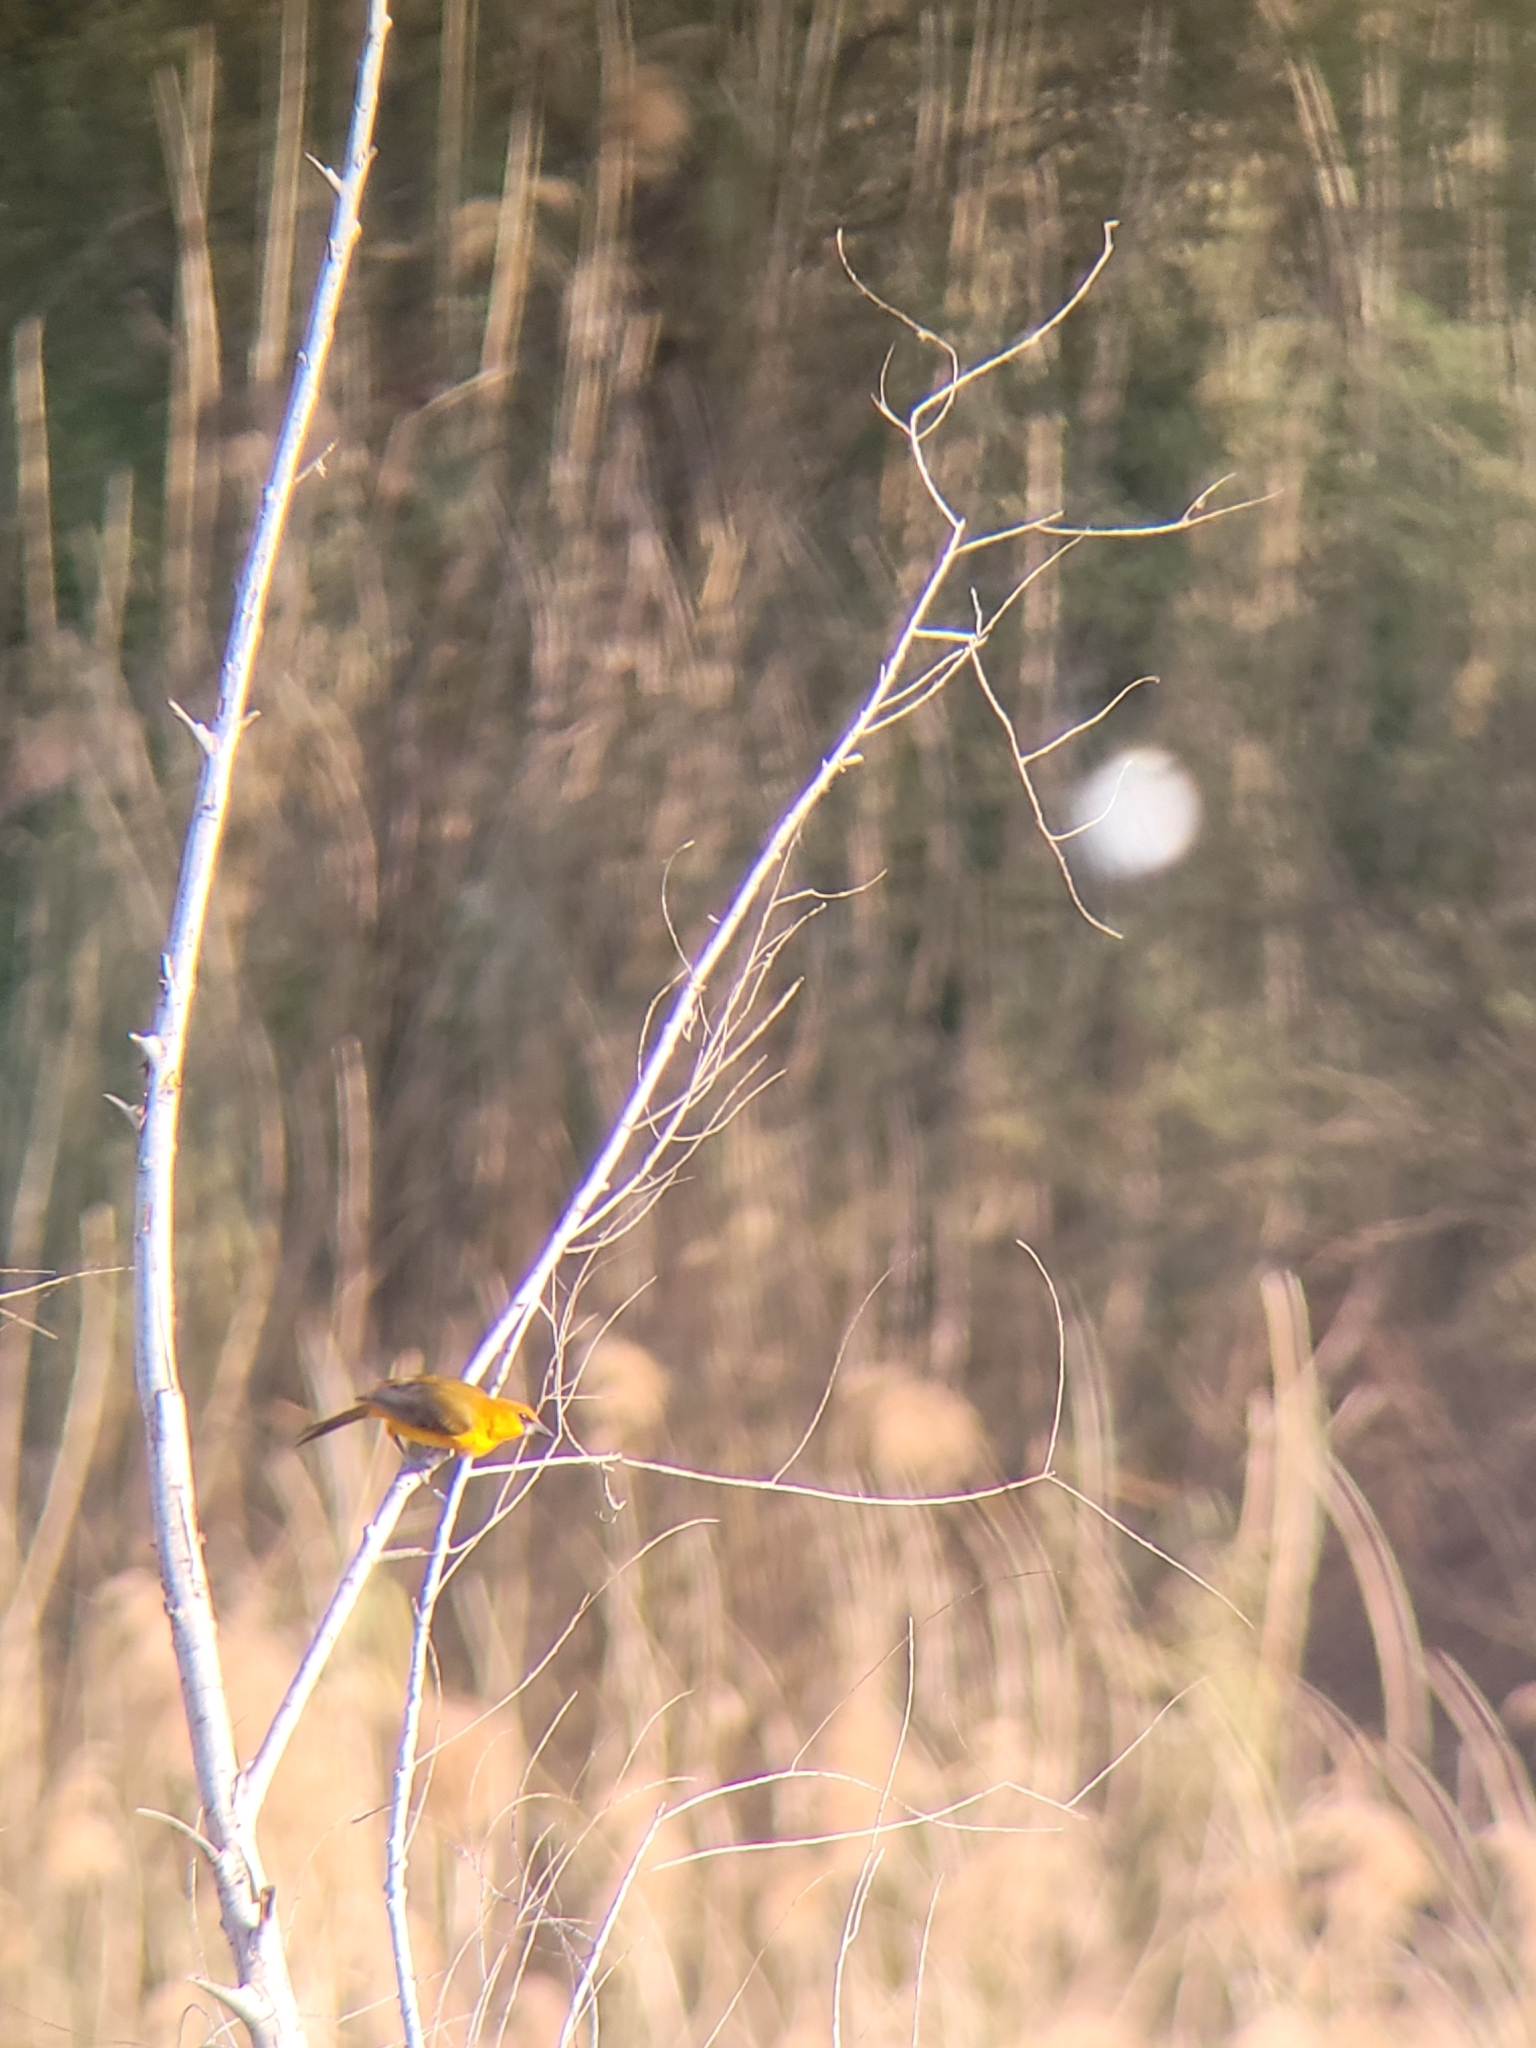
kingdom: Animalia
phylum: Chordata
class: Aves
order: Passeriformes
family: Icteridae
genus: Icterus
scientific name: Icterus gularis
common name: Altamira oriole
